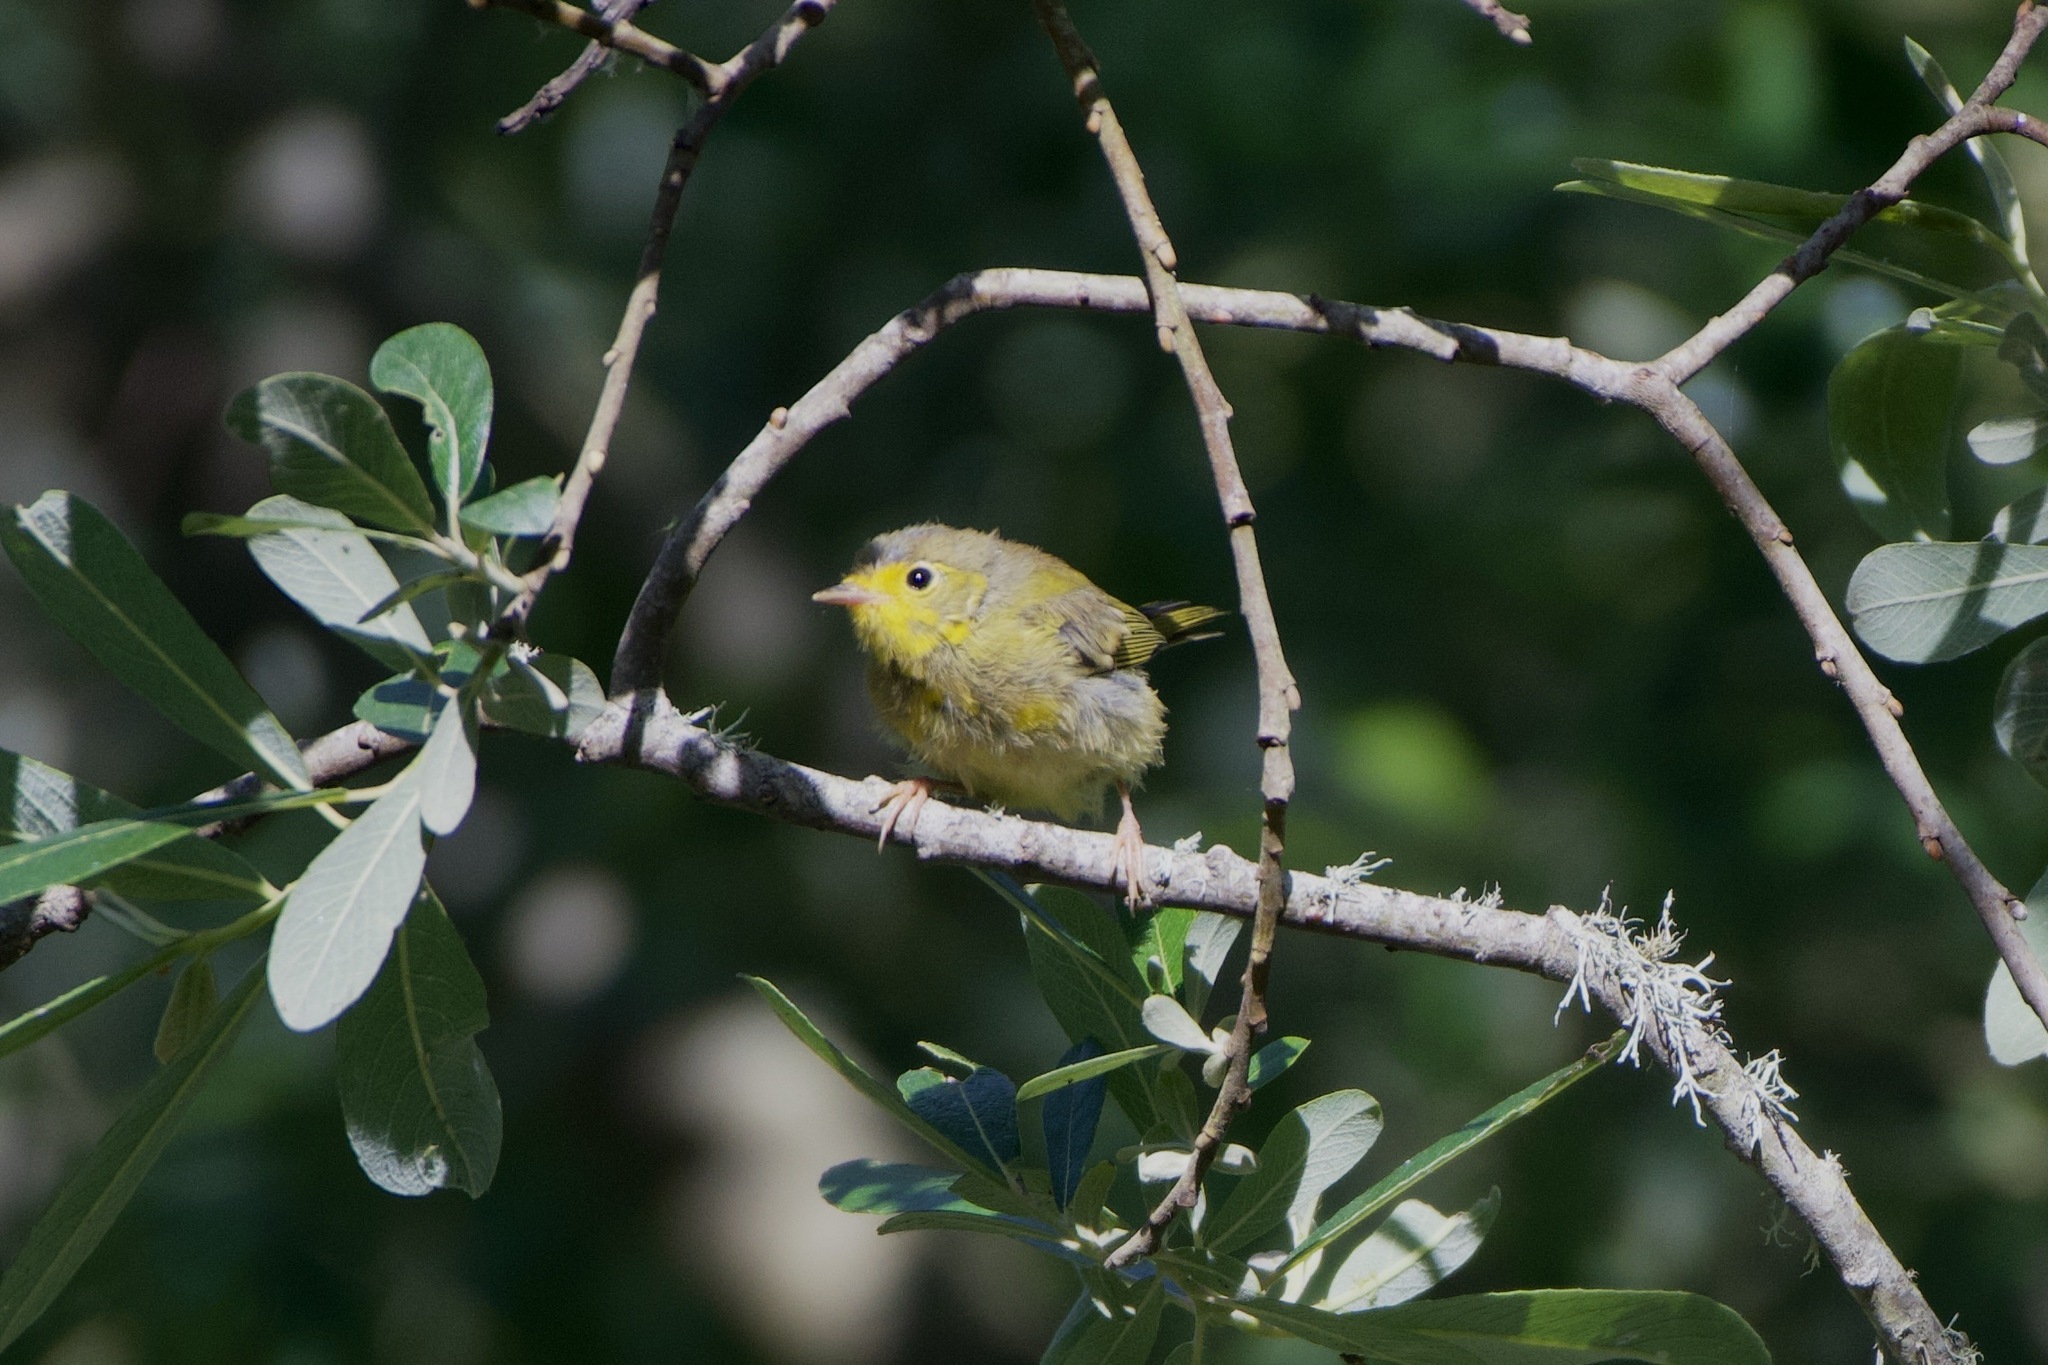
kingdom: Animalia
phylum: Chordata
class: Aves
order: Passeriformes
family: Parulidae
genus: Cardellina
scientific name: Cardellina pusilla
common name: Wilson's warbler
